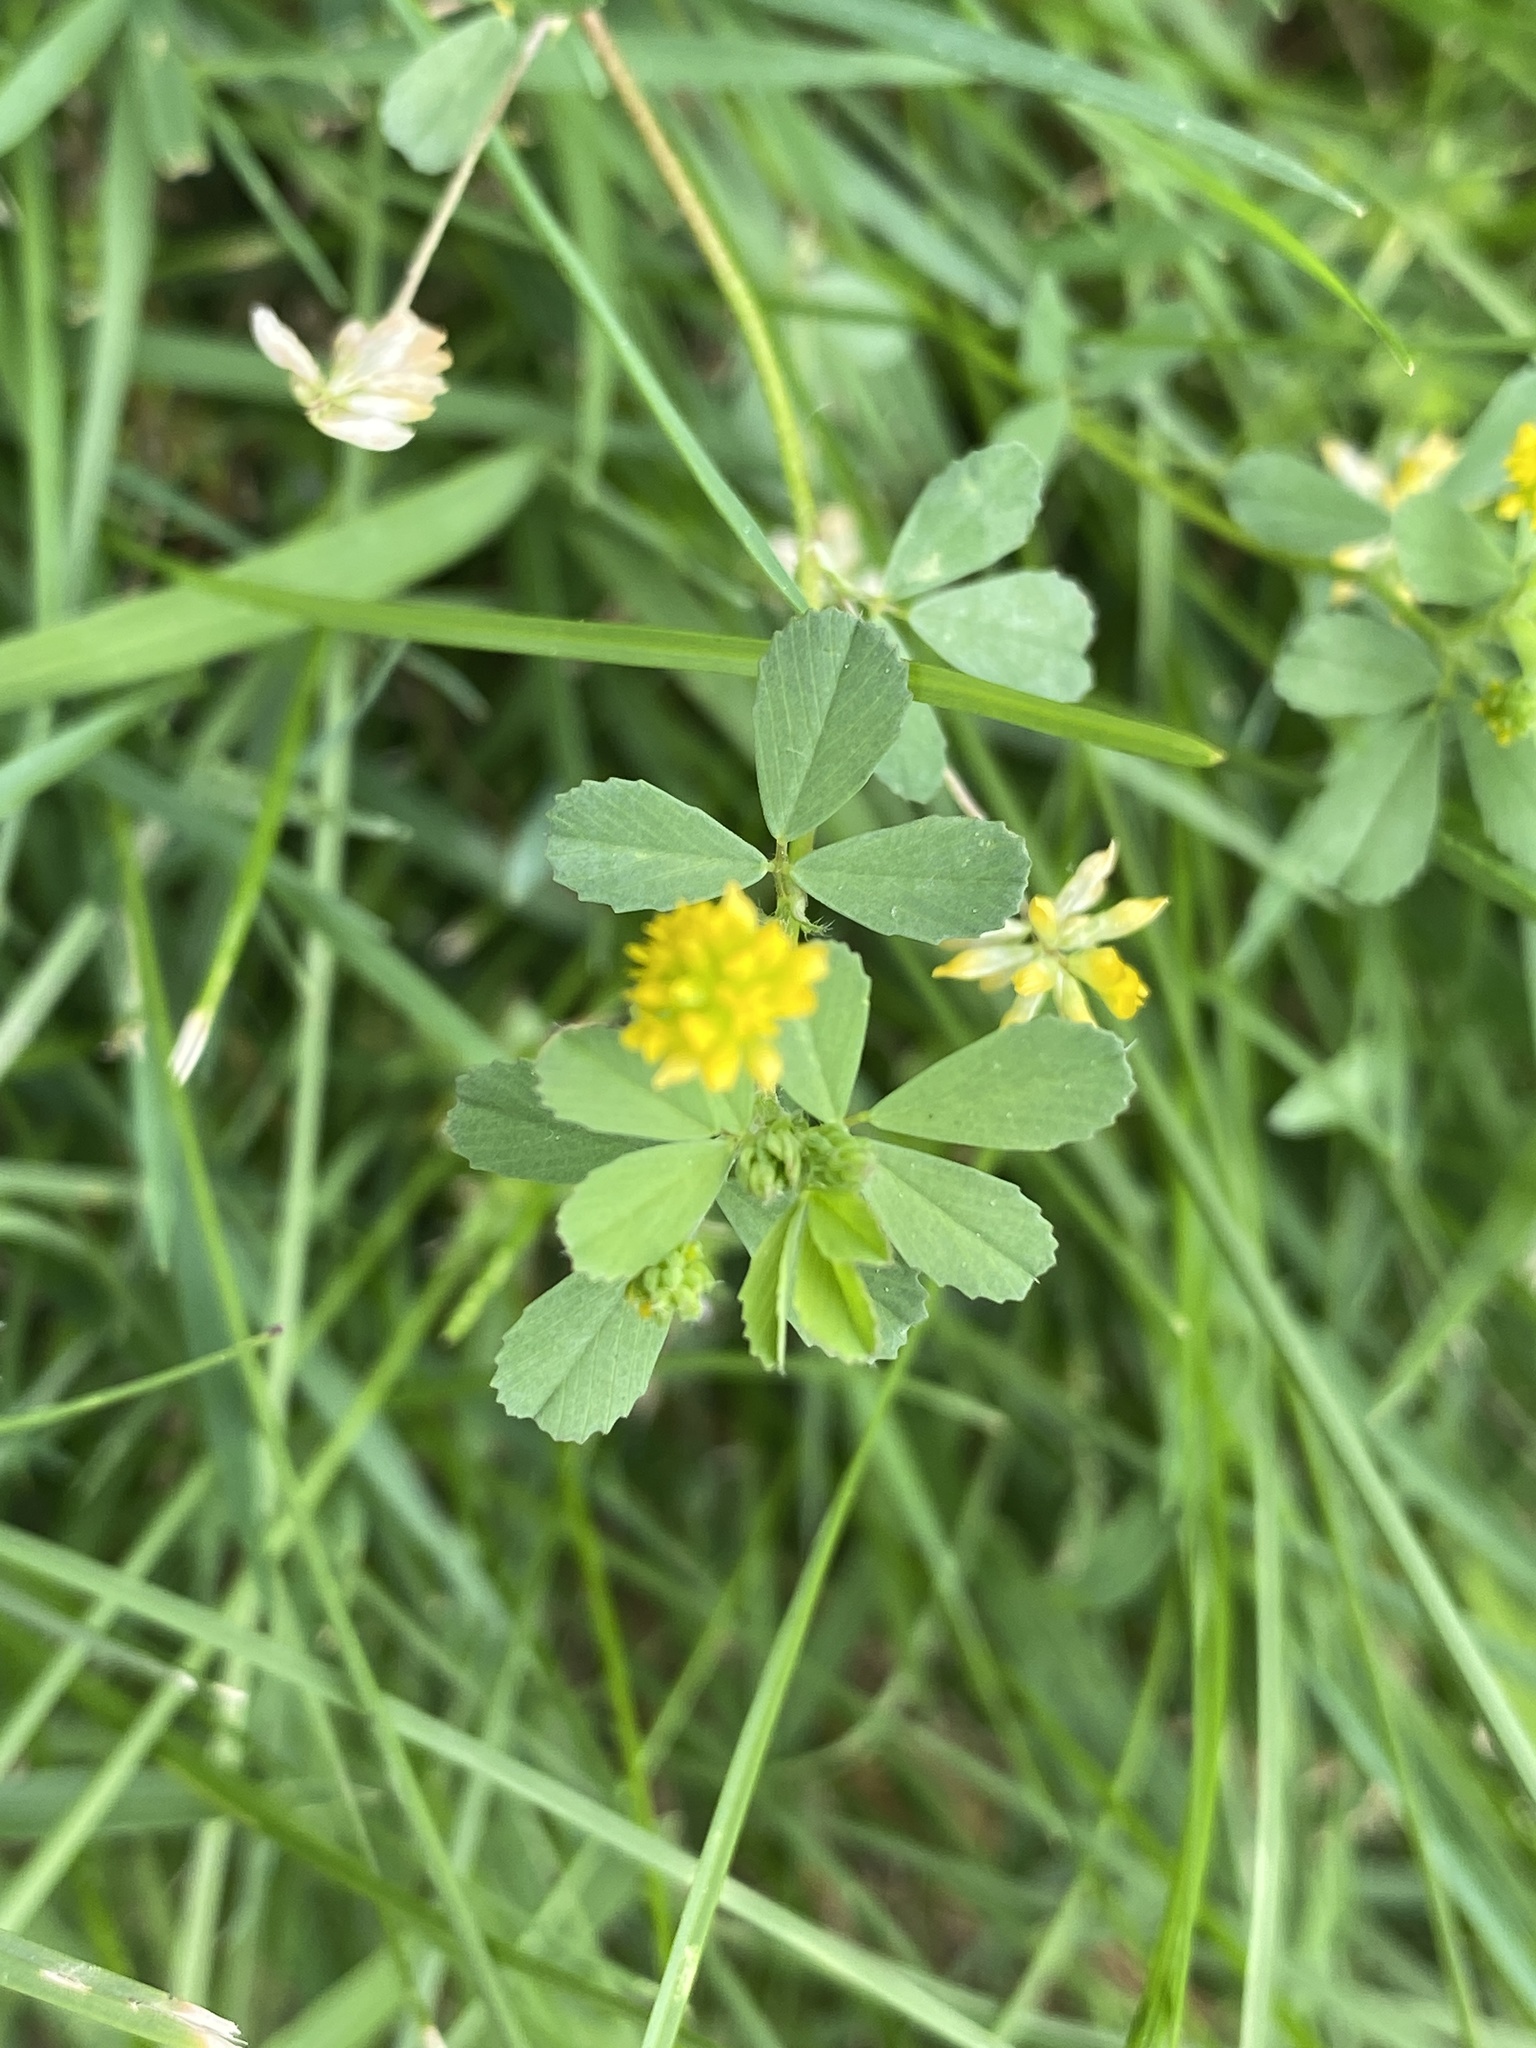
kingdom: Plantae
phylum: Tracheophyta
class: Magnoliopsida
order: Fabales
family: Fabaceae
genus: Trifolium
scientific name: Trifolium dubium
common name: Suckling clover
